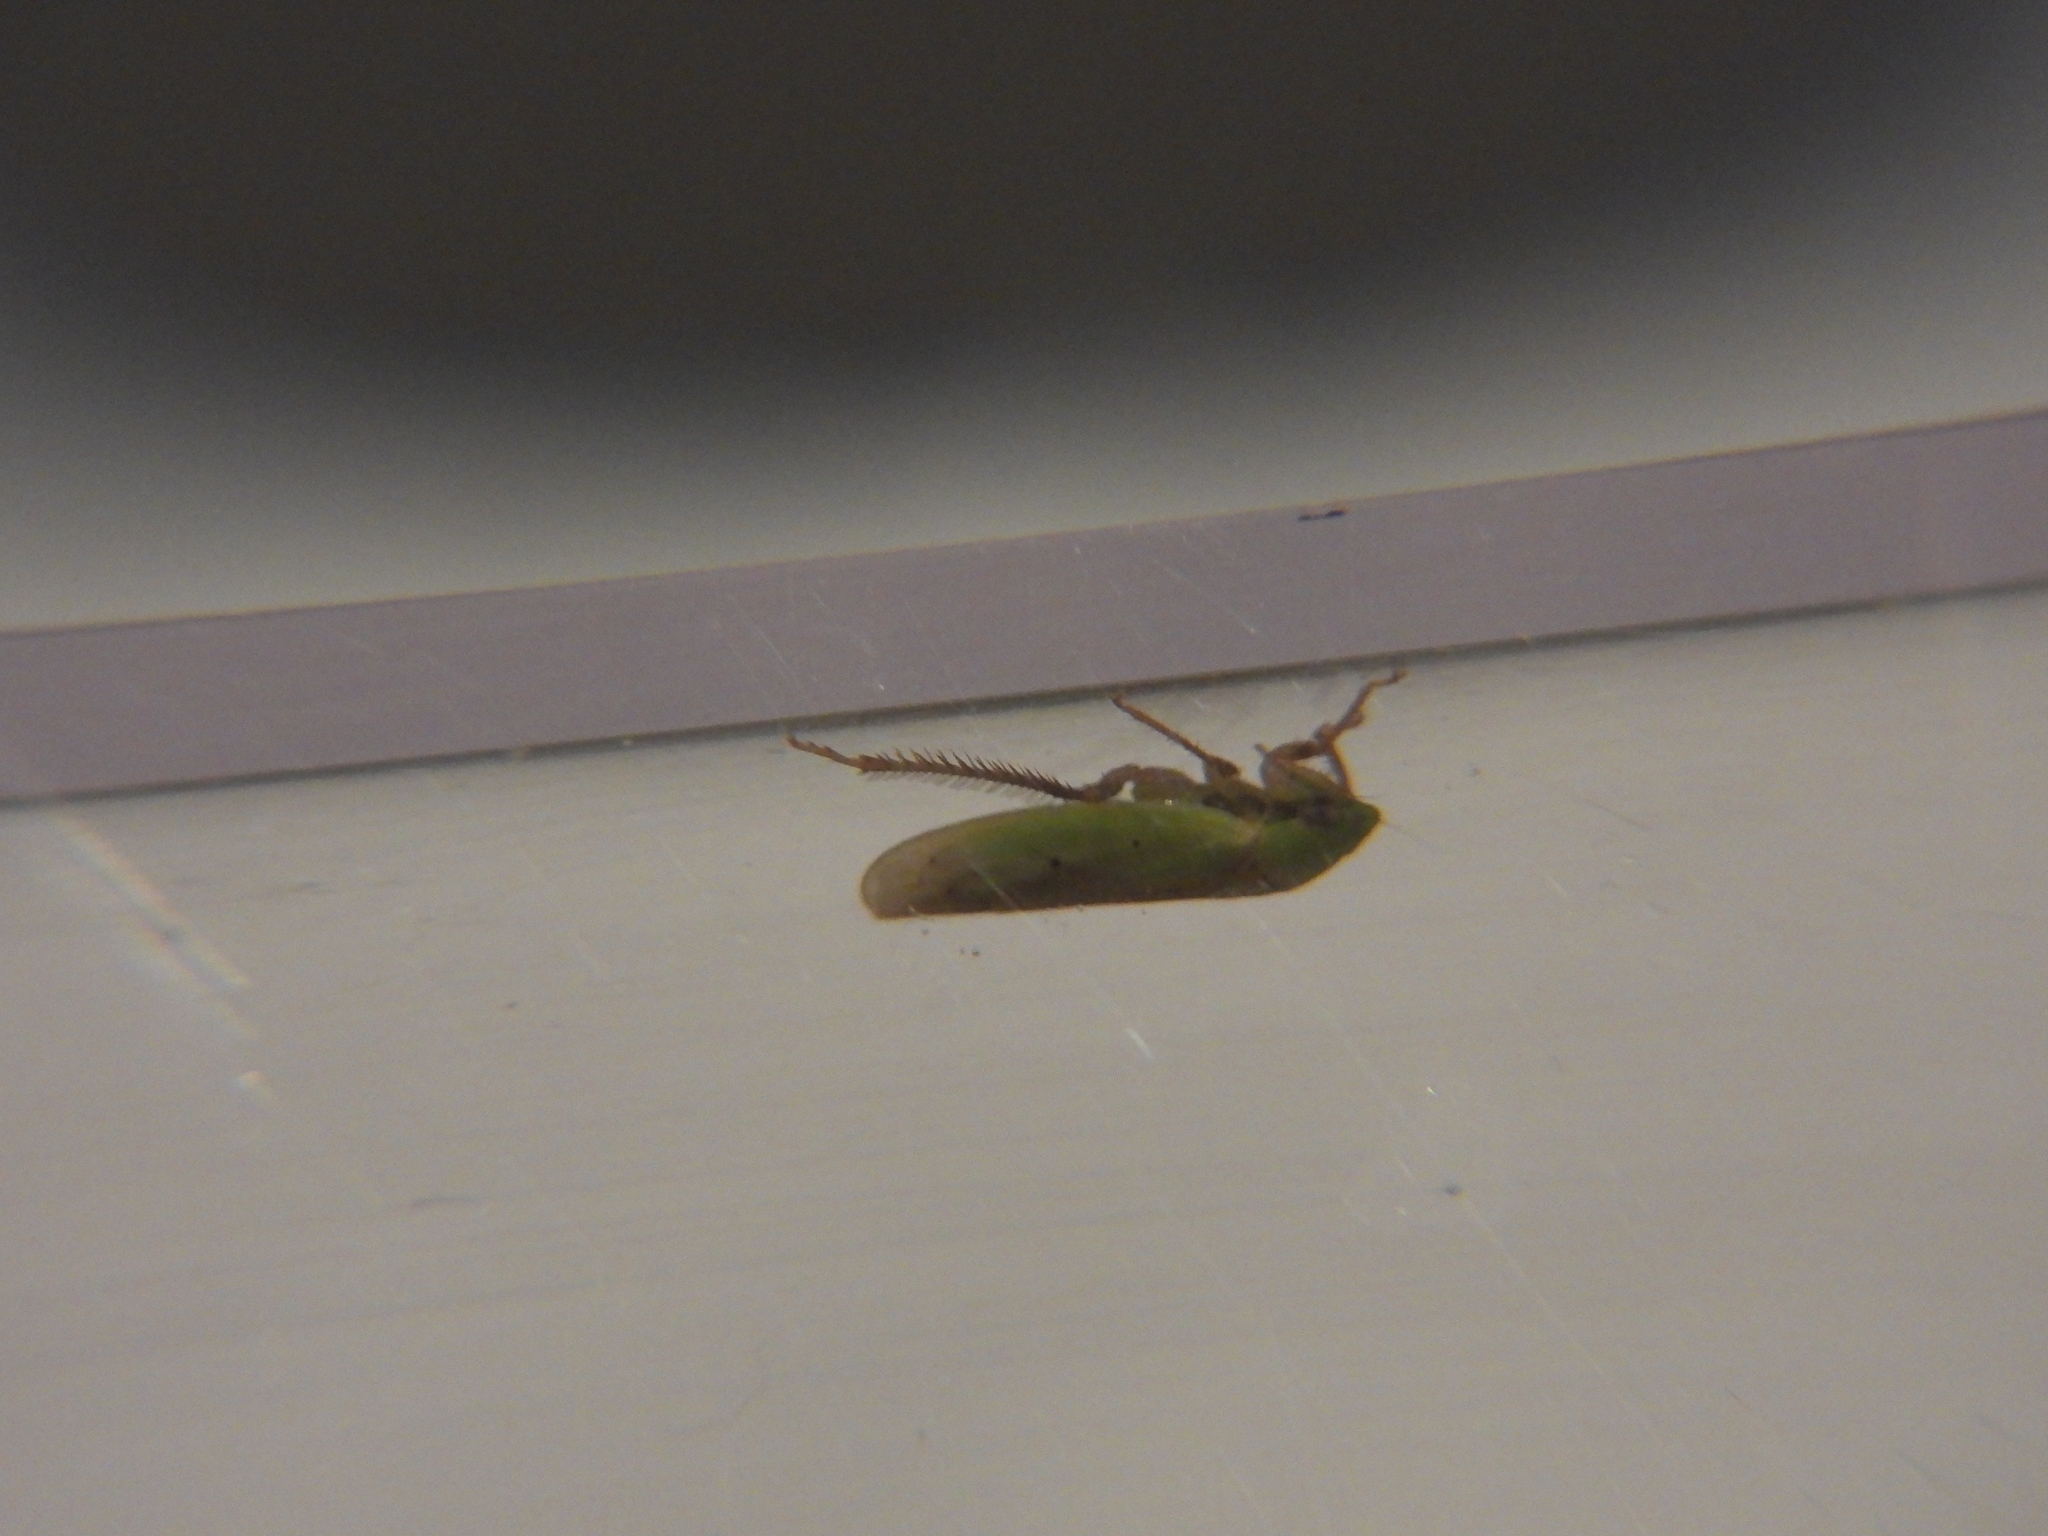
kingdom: Animalia
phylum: Arthropoda
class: Insecta
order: Hemiptera
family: Cicadellidae
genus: Ponana
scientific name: Ponana
